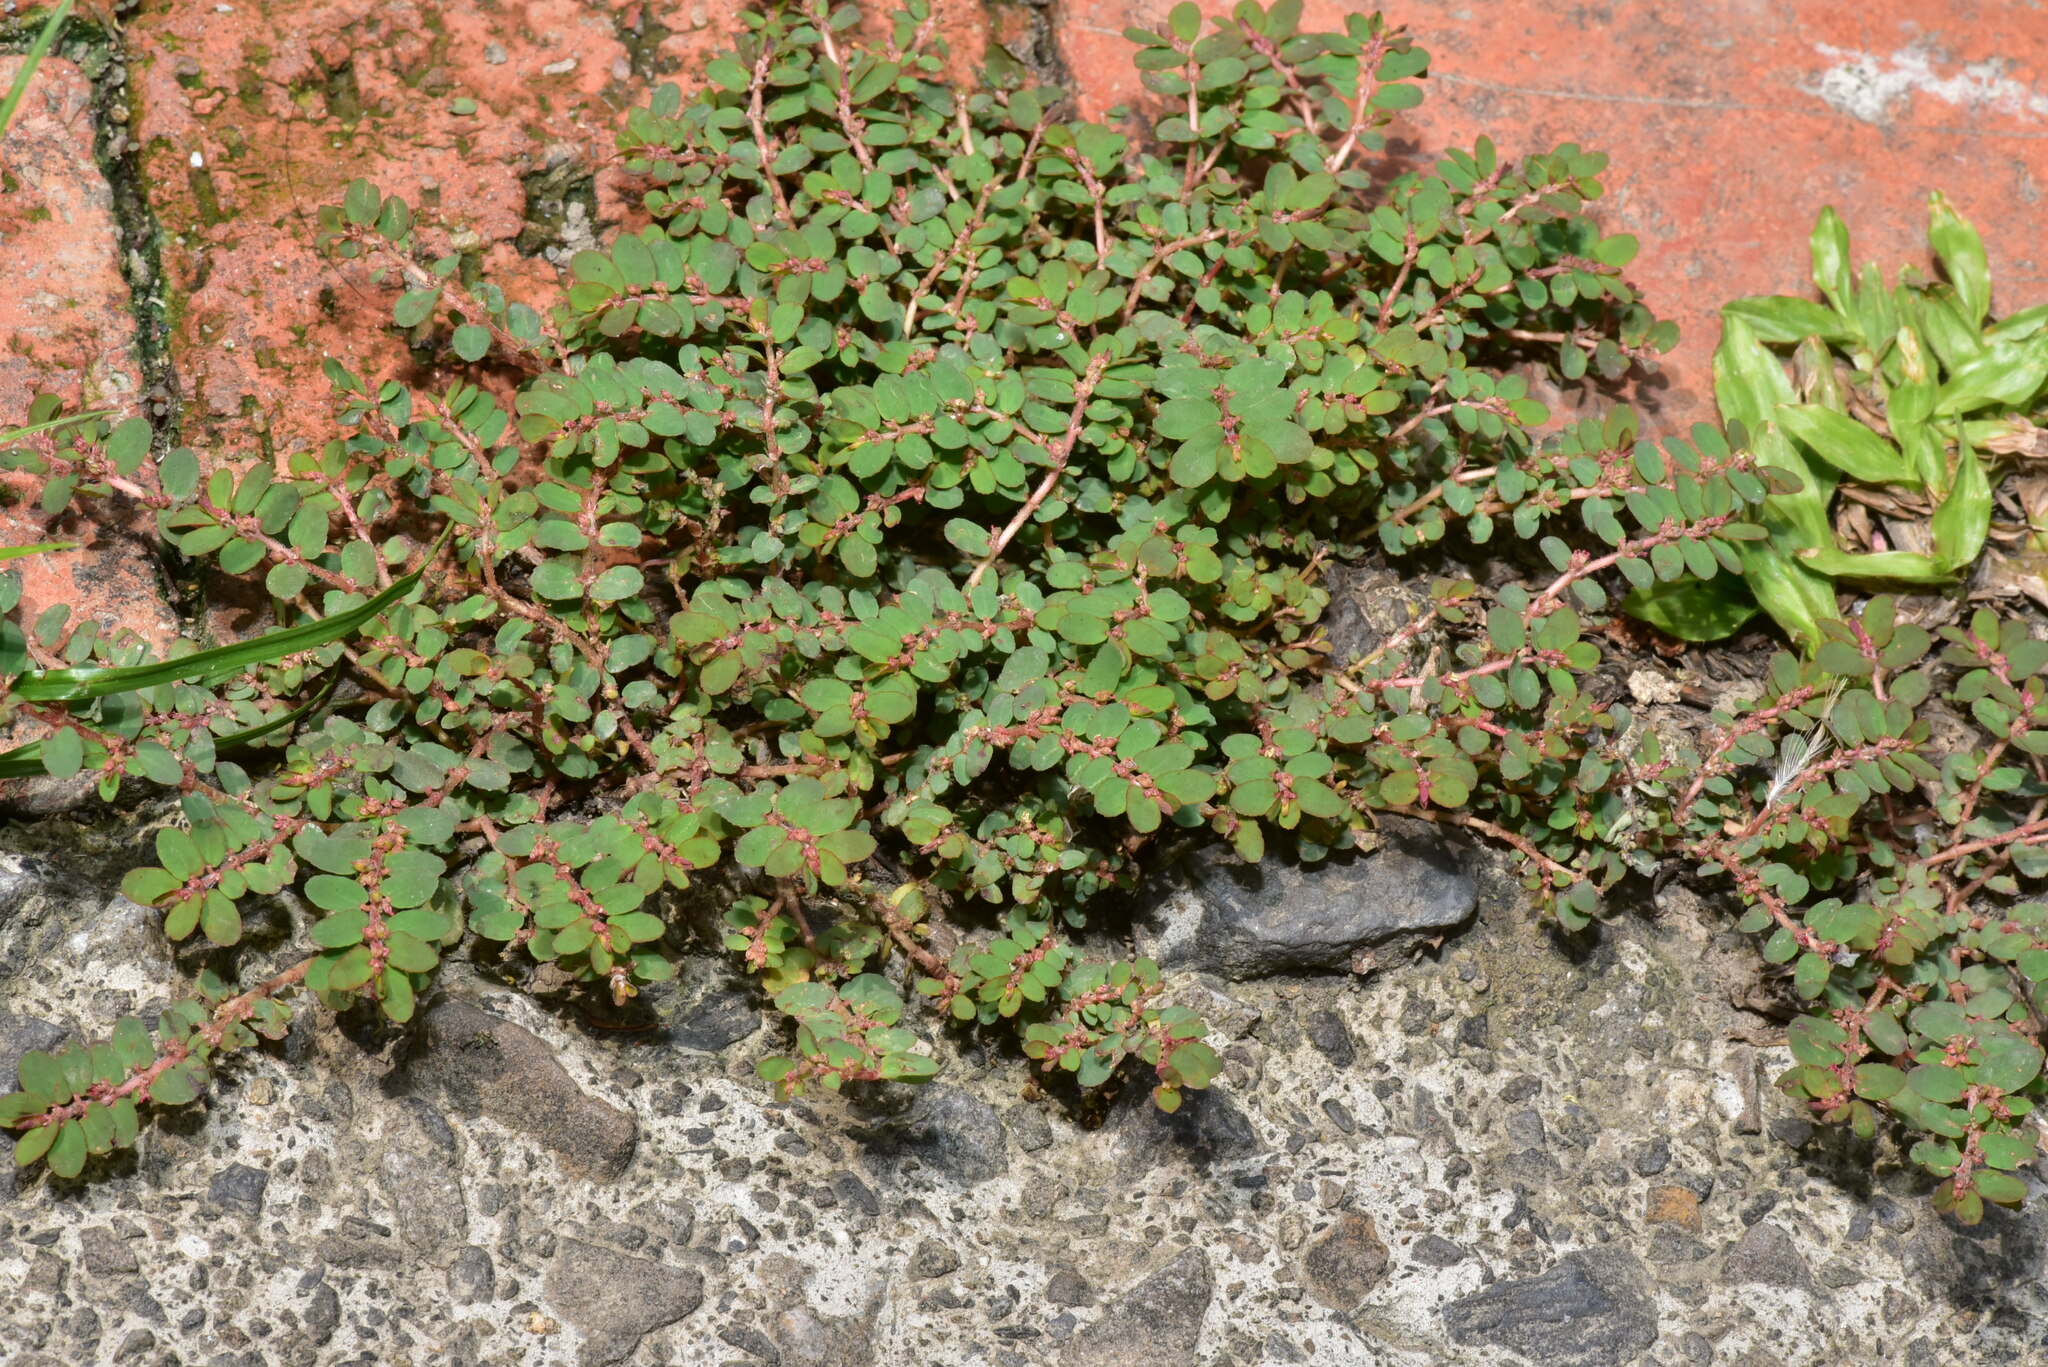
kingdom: Plantae
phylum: Tracheophyta
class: Magnoliopsida
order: Malpighiales
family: Euphorbiaceae
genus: Euphorbia
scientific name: Euphorbia thymifolia
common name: Gulf sandmat
